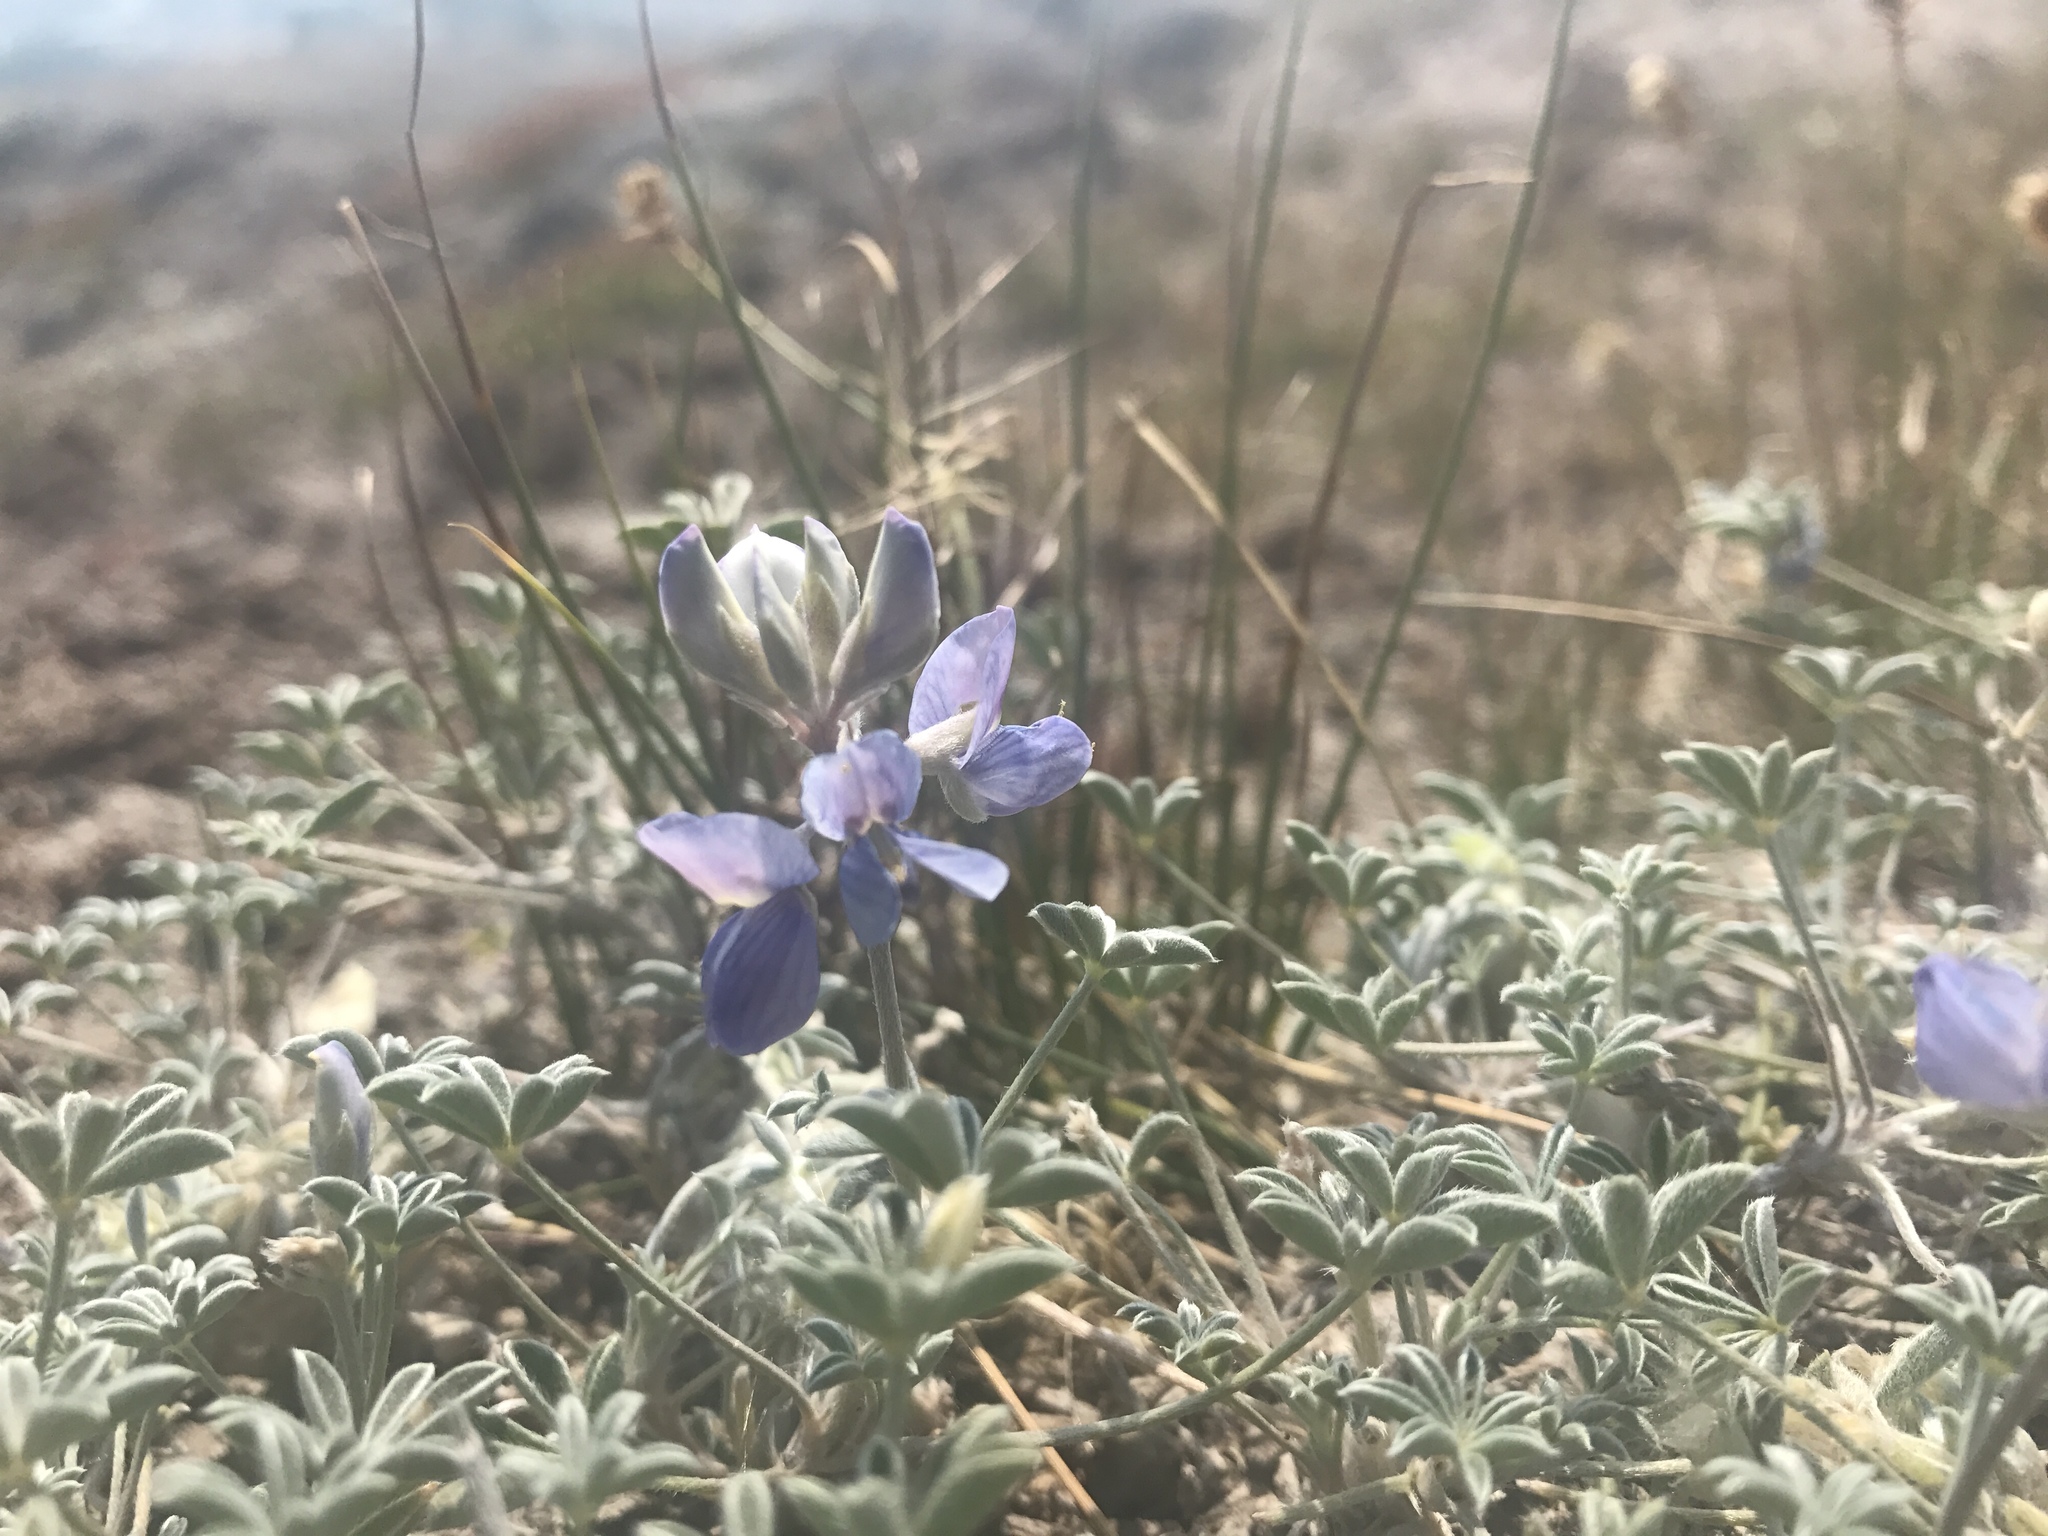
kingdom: Plantae
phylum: Tracheophyta
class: Magnoliopsida
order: Fabales
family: Fabaceae
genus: Lupinus
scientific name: Lupinus lepidus
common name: Prairie lupine
